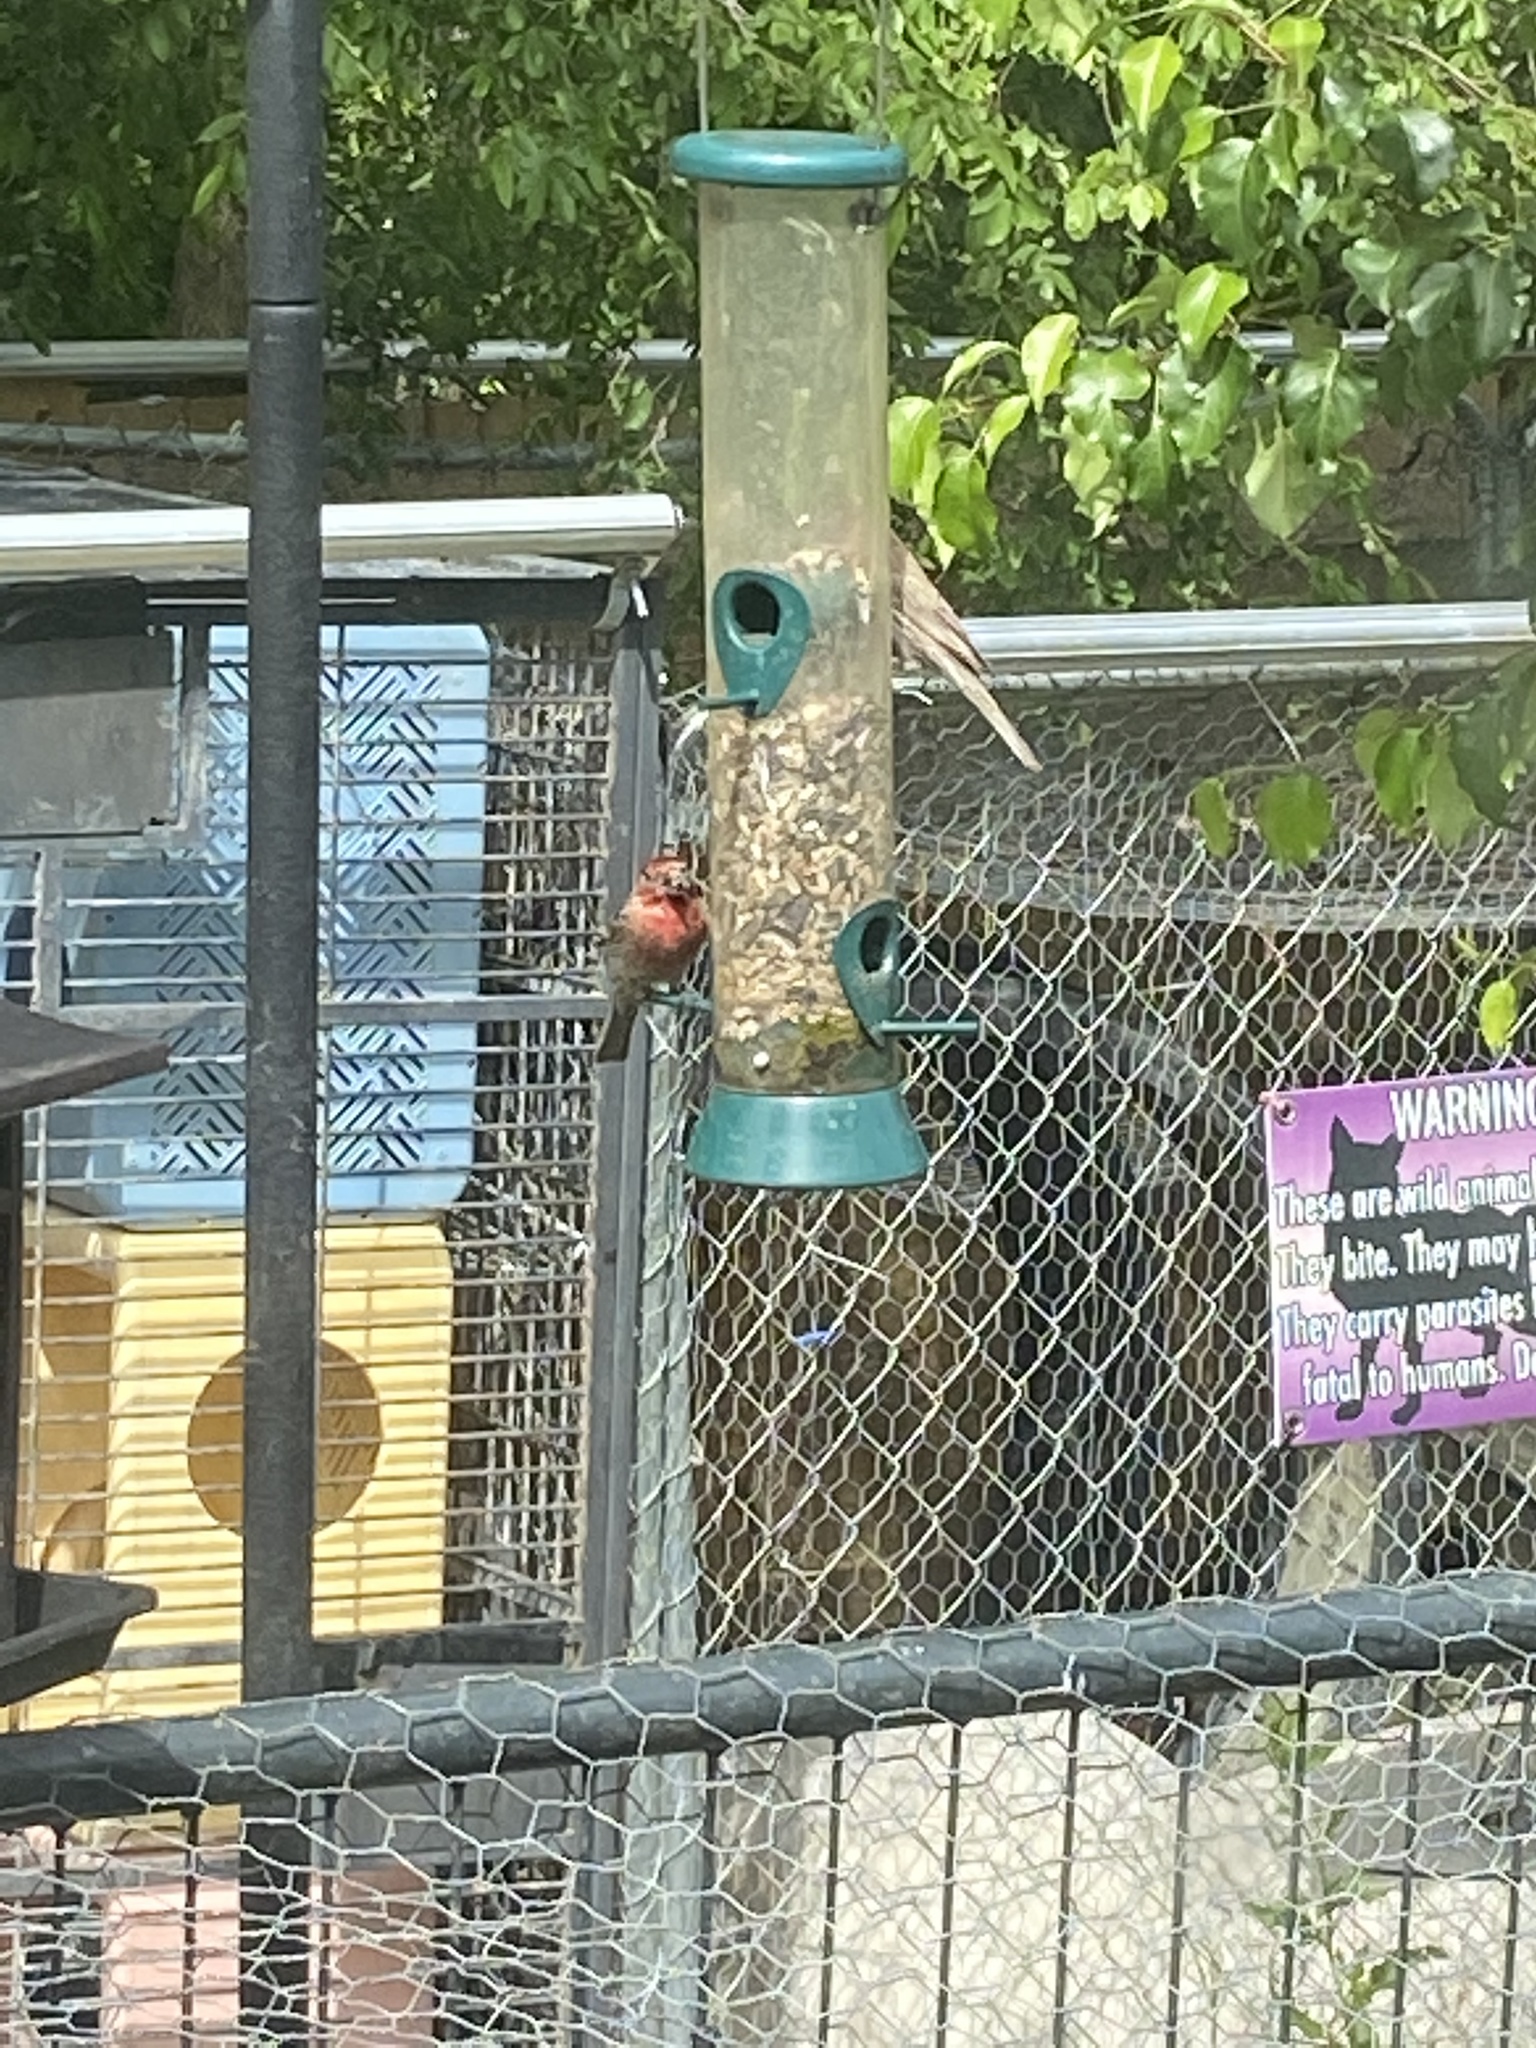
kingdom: Animalia
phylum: Chordata
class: Aves
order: Passeriformes
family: Fringillidae
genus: Haemorhous
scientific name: Haemorhous mexicanus
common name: House finch
